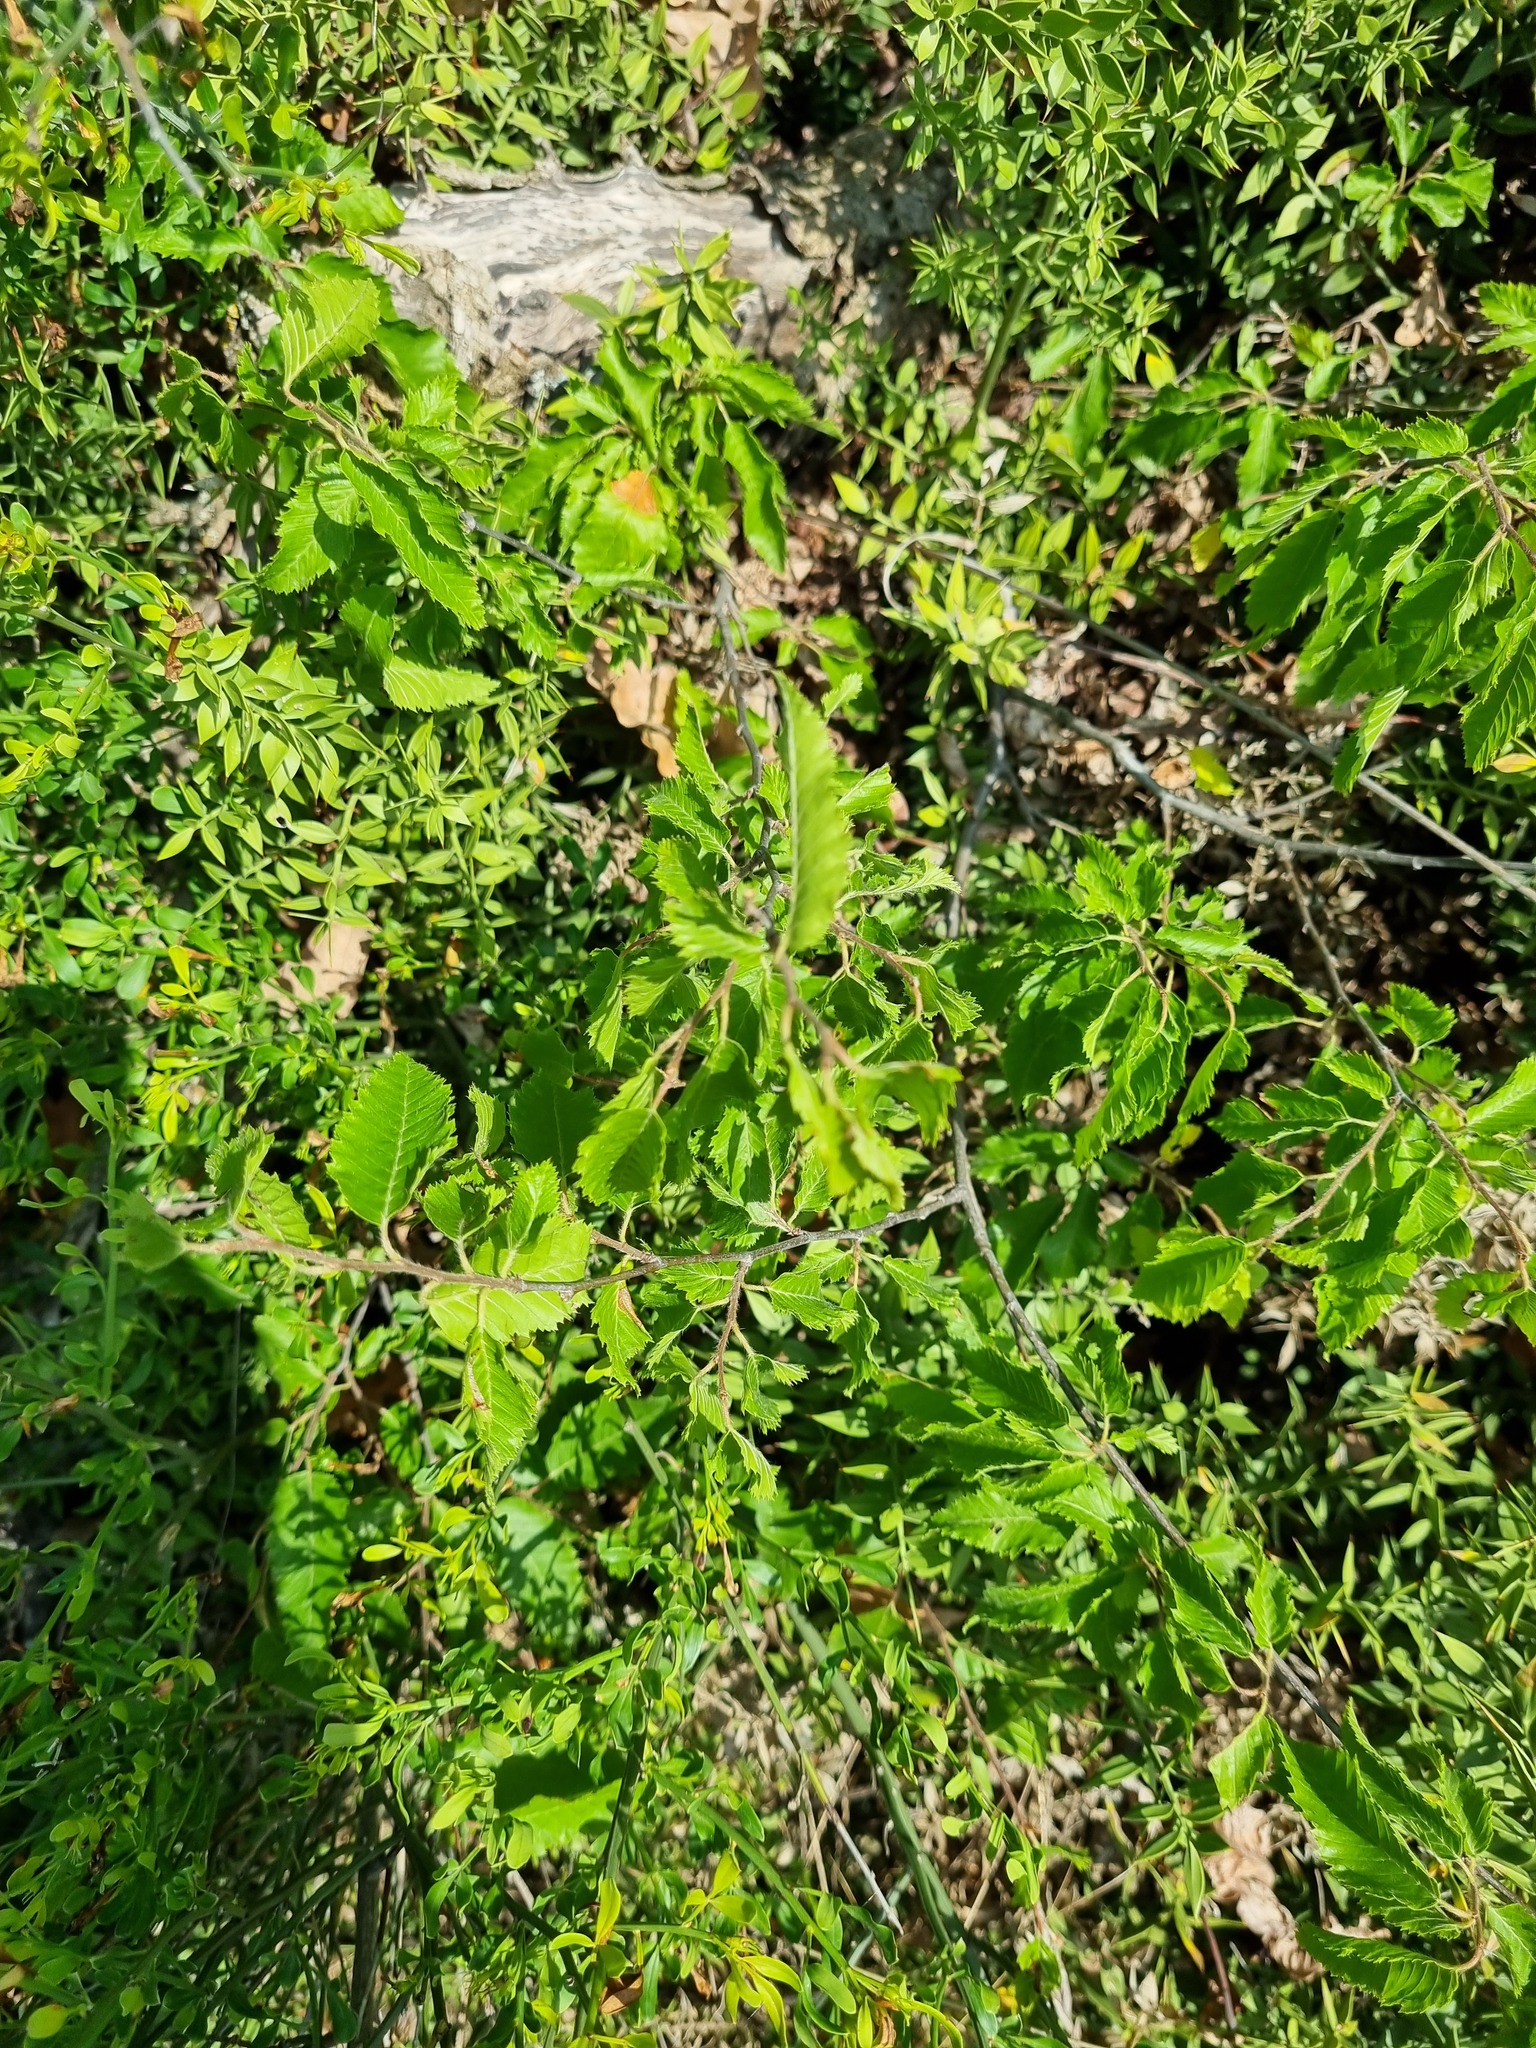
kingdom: Plantae
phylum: Tracheophyta
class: Magnoliopsida
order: Fagales
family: Betulaceae
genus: Carpinus
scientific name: Carpinus orientalis
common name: Eastern hornbeam
